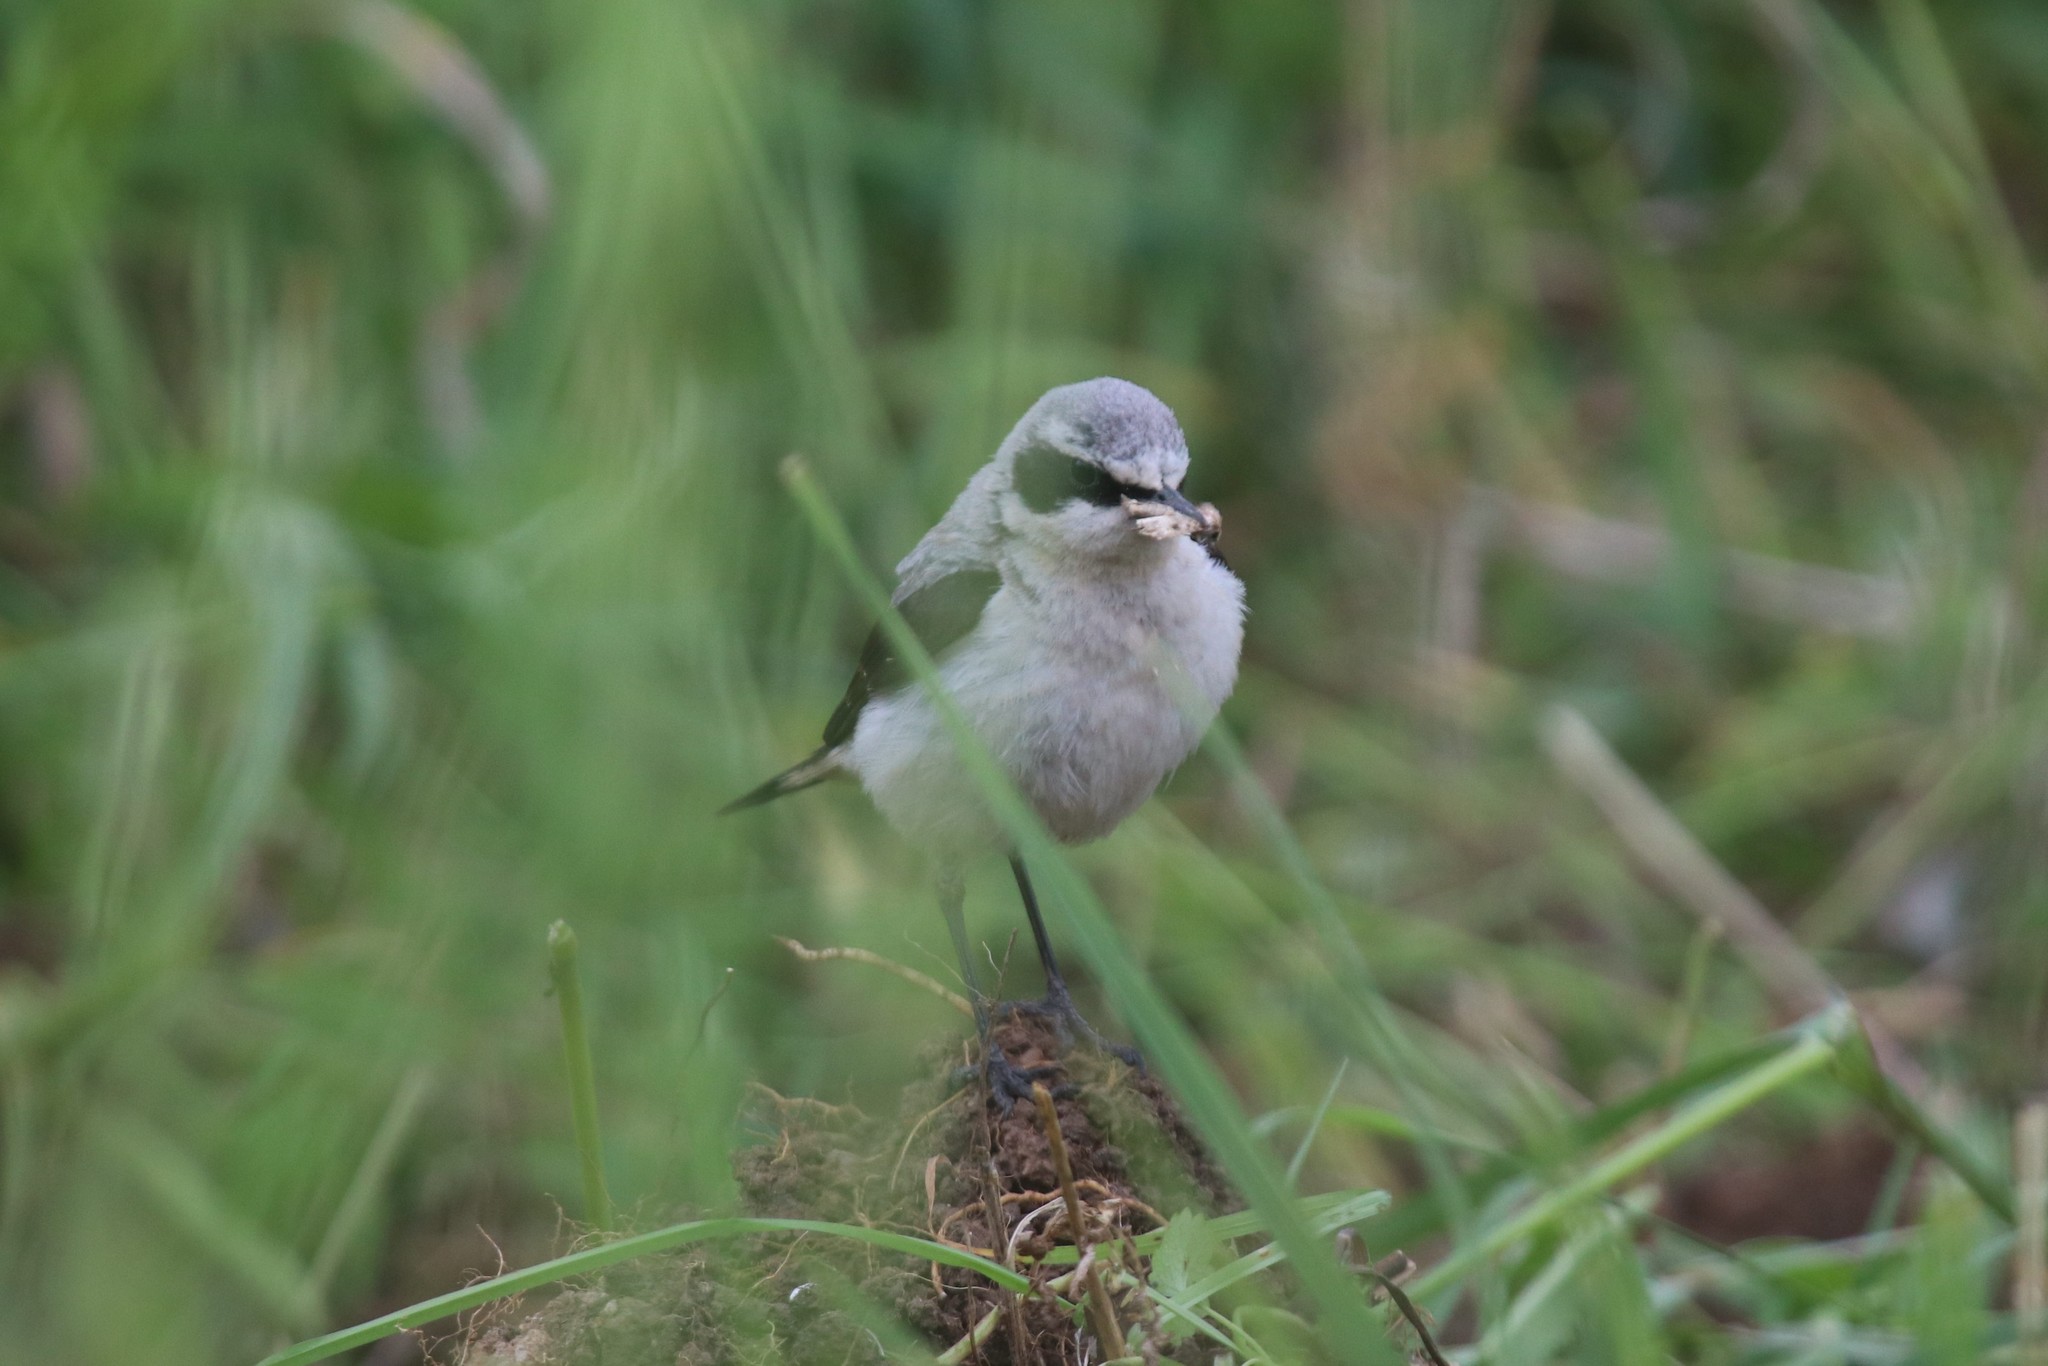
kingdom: Animalia
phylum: Chordata
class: Aves
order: Passeriformes
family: Muscicapidae
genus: Oenanthe
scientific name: Oenanthe oenanthe
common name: Northern wheatear
